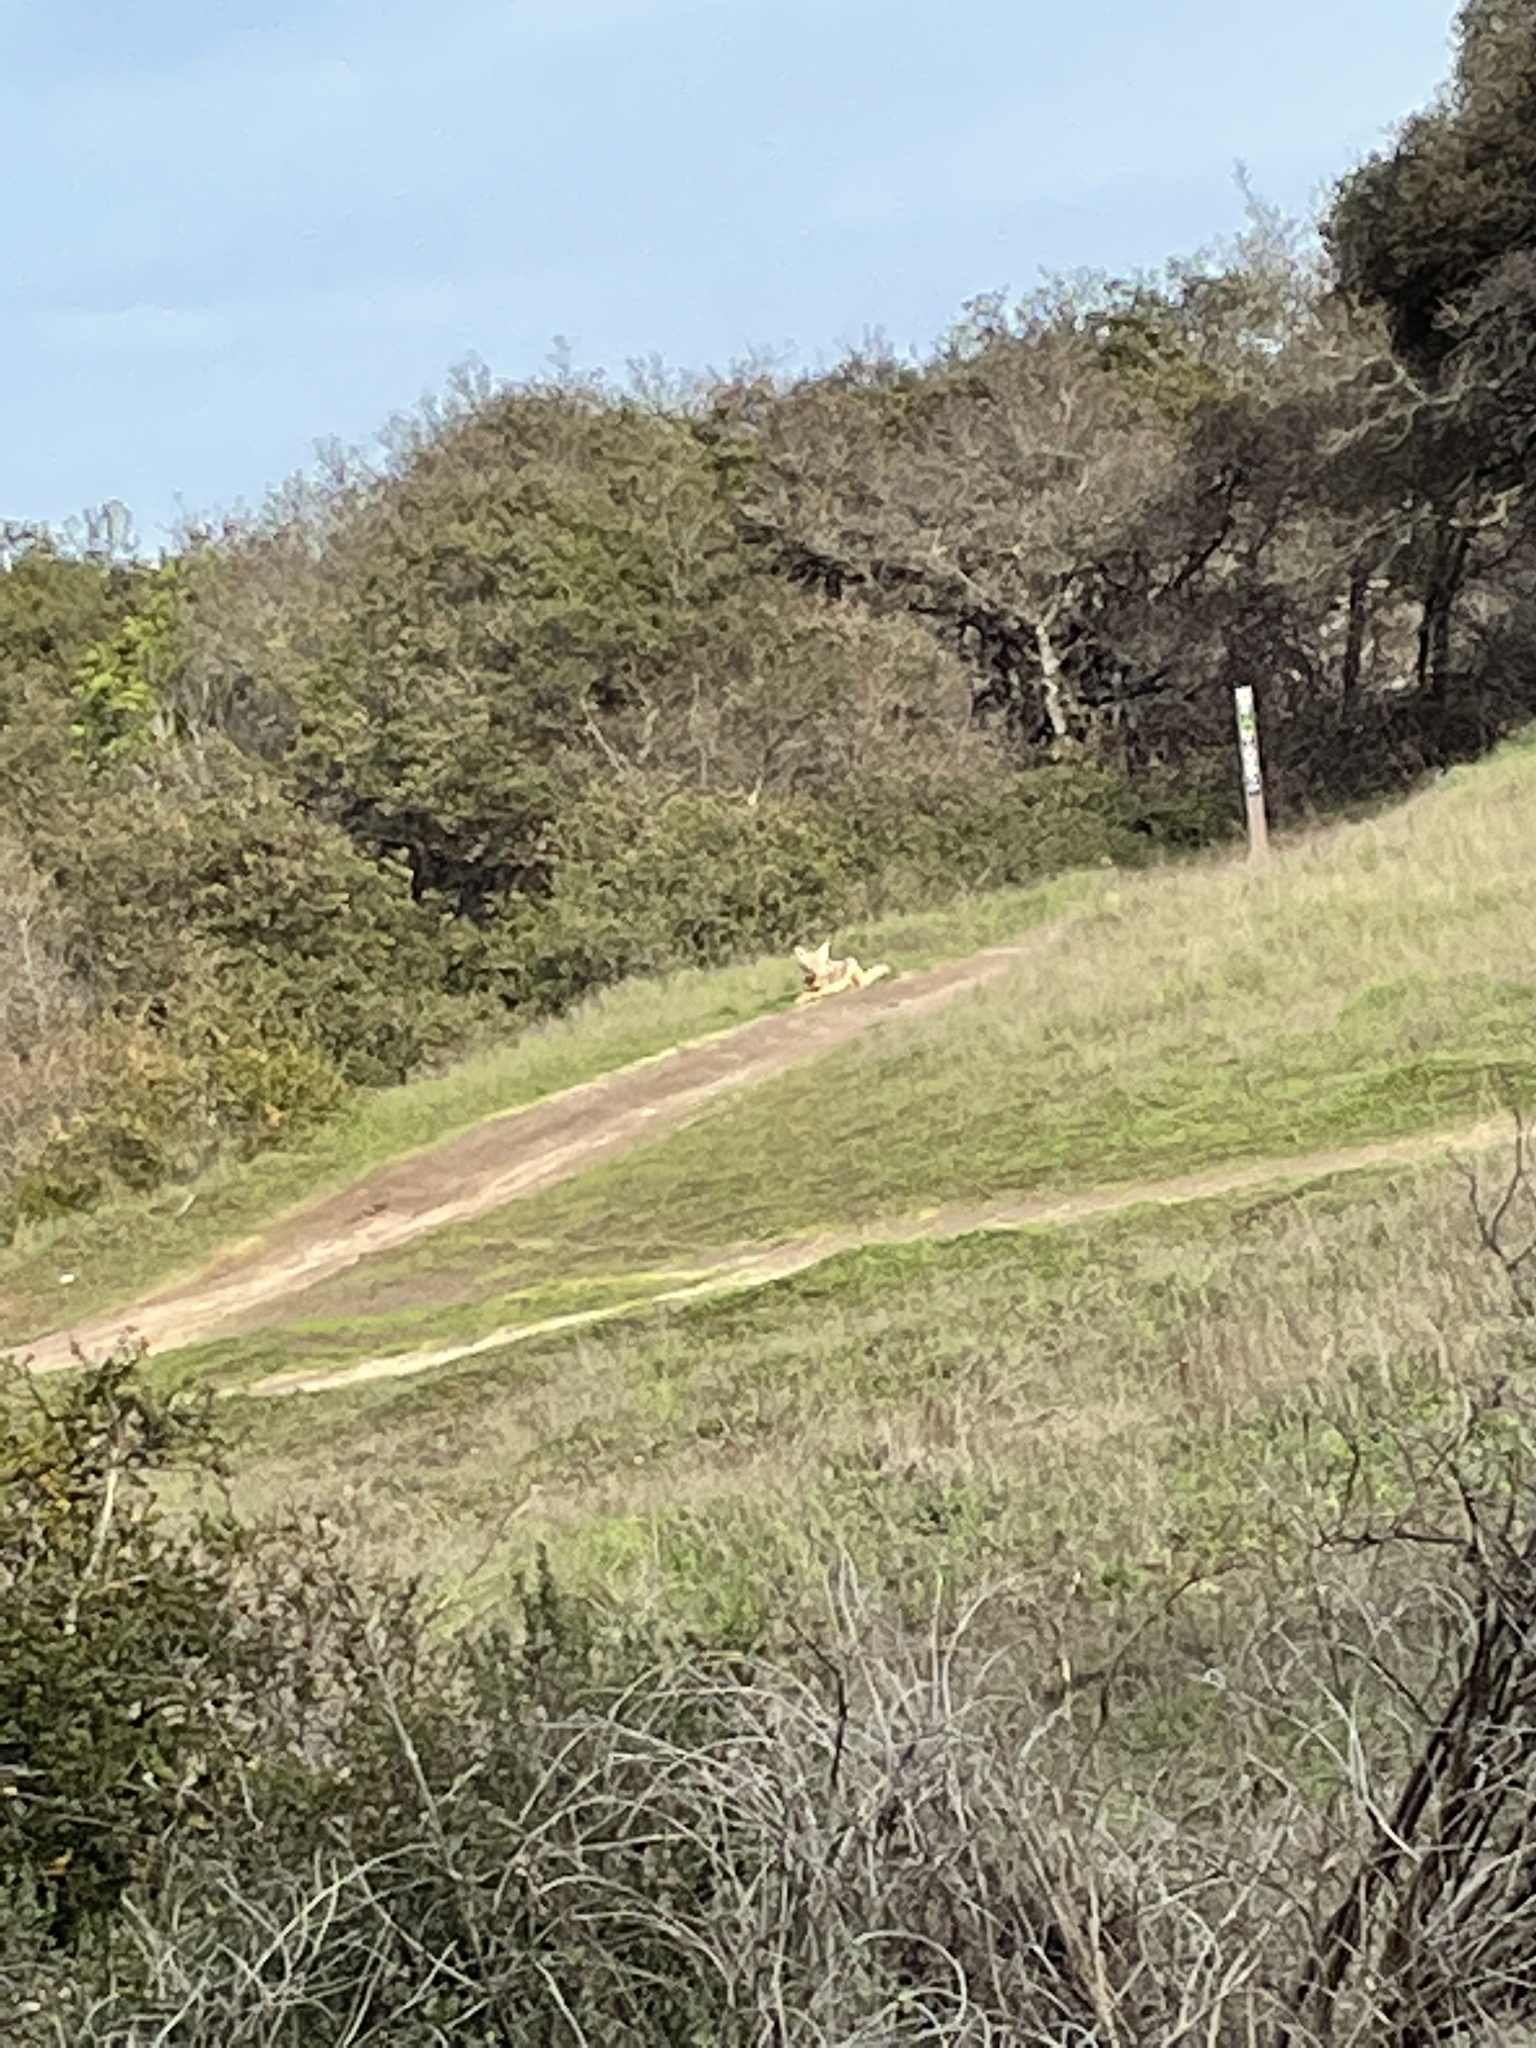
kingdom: Animalia
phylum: Chordata
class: Mammalia
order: Carnivora
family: Canidae
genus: Canis
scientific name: Canis latrans
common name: Coyote
